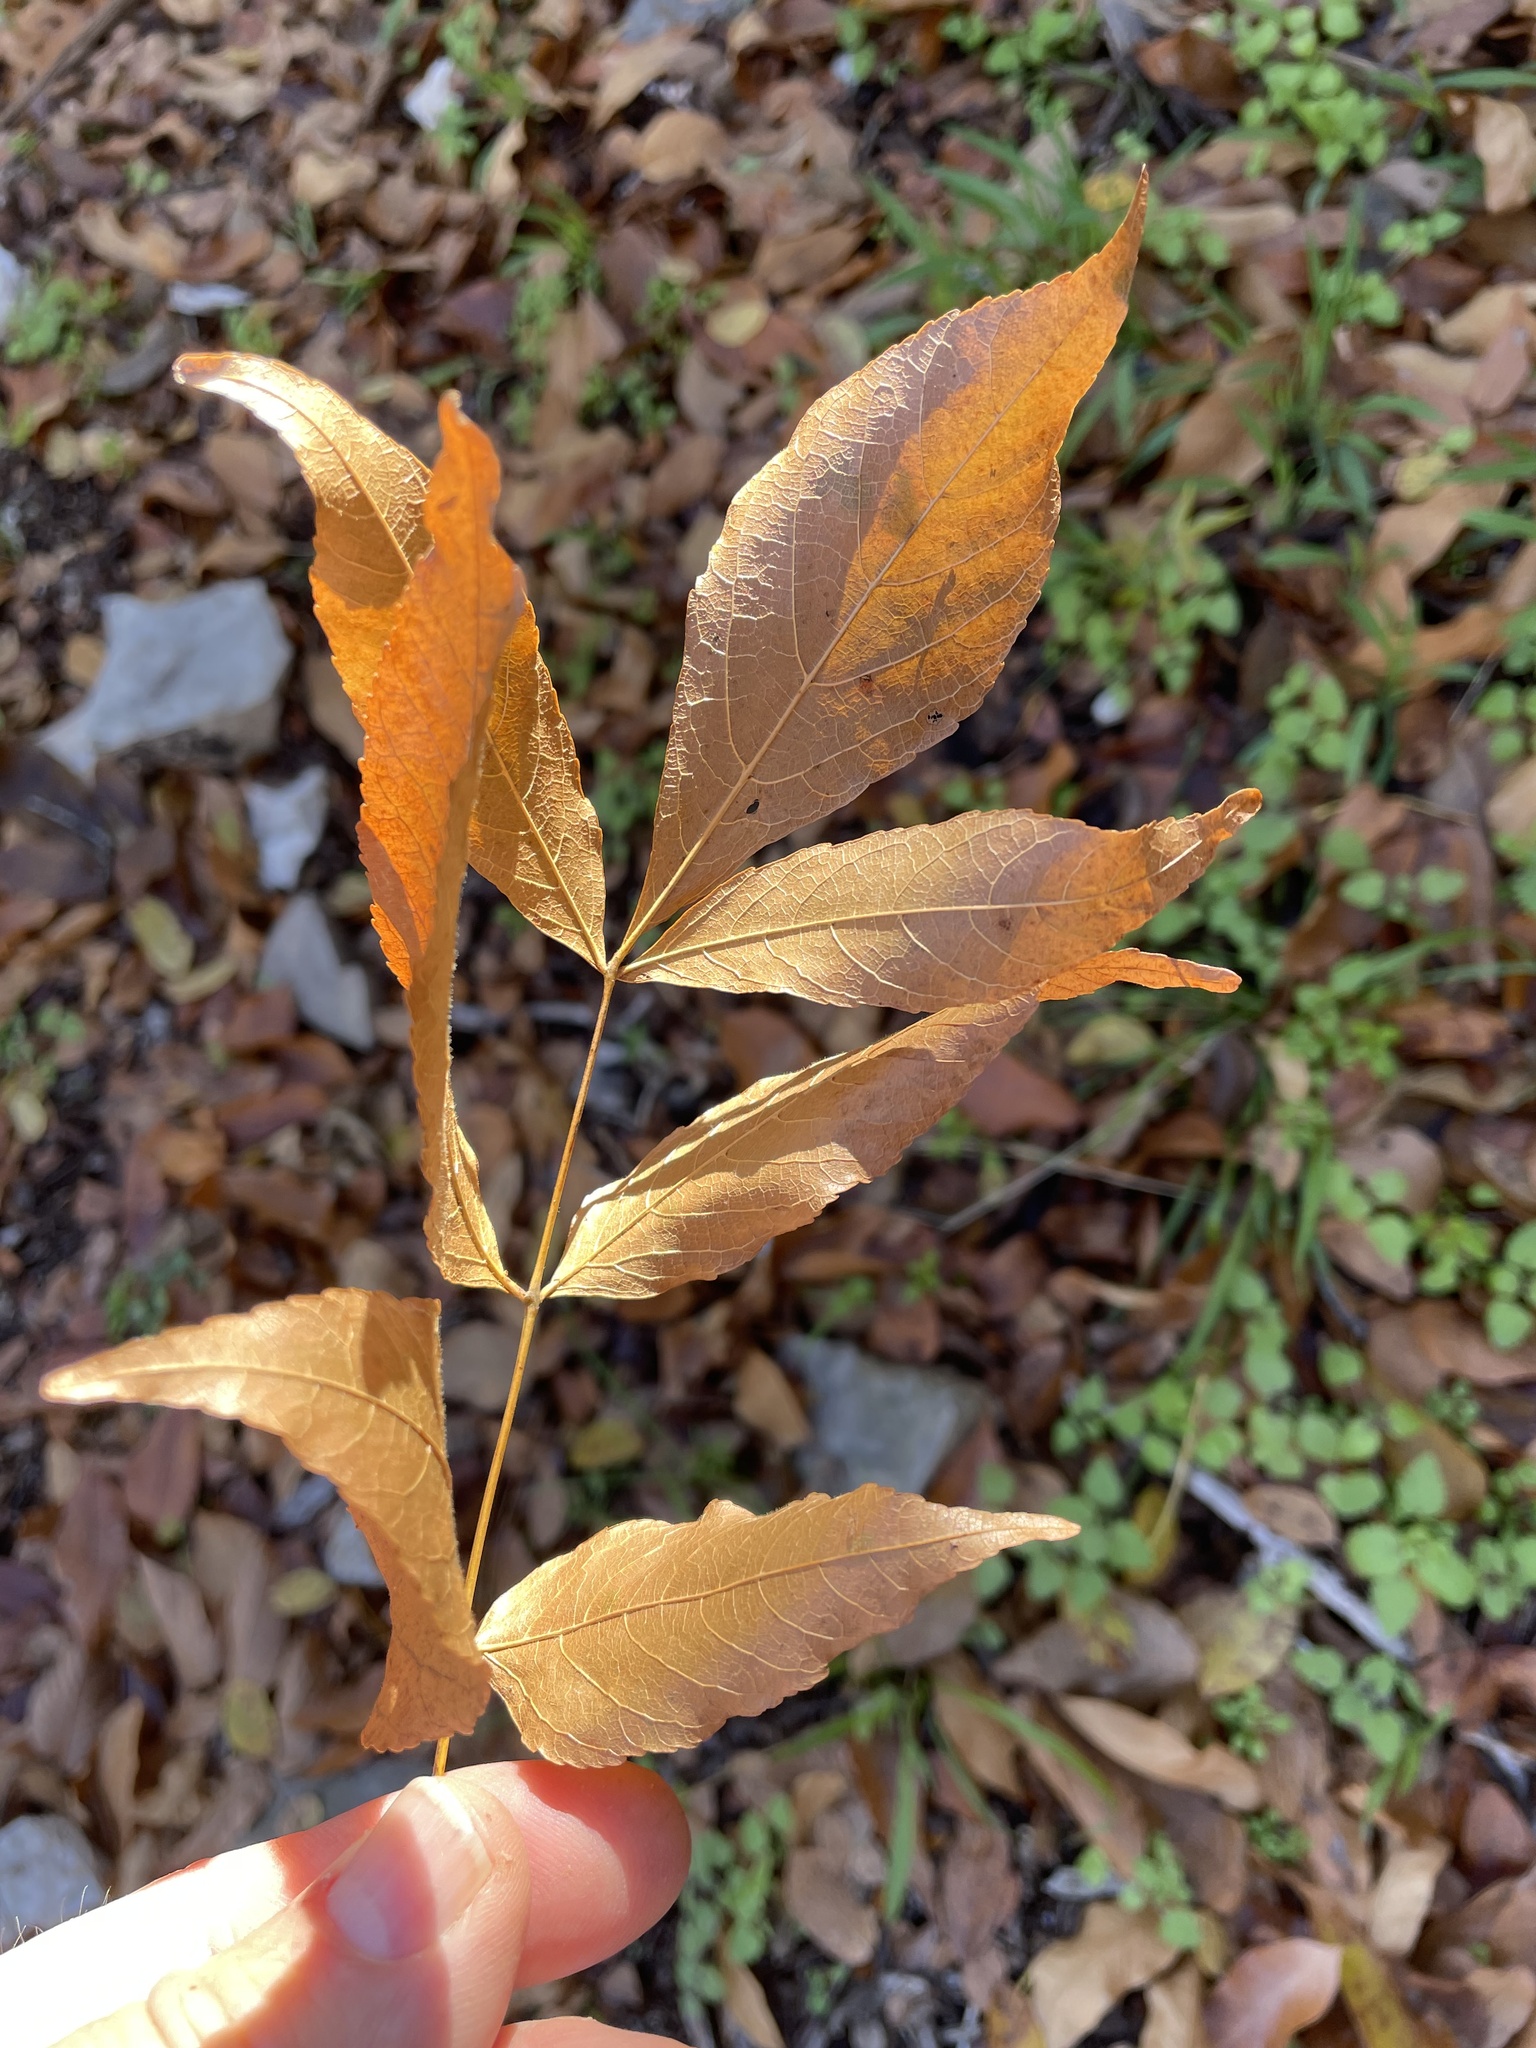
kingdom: Plantae
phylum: Tracheophyta
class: Magnoliopsida
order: Sapindales
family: Sapindaceae
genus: Ungnadia
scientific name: Ungnadia speciosa
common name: Texas-buckeye
